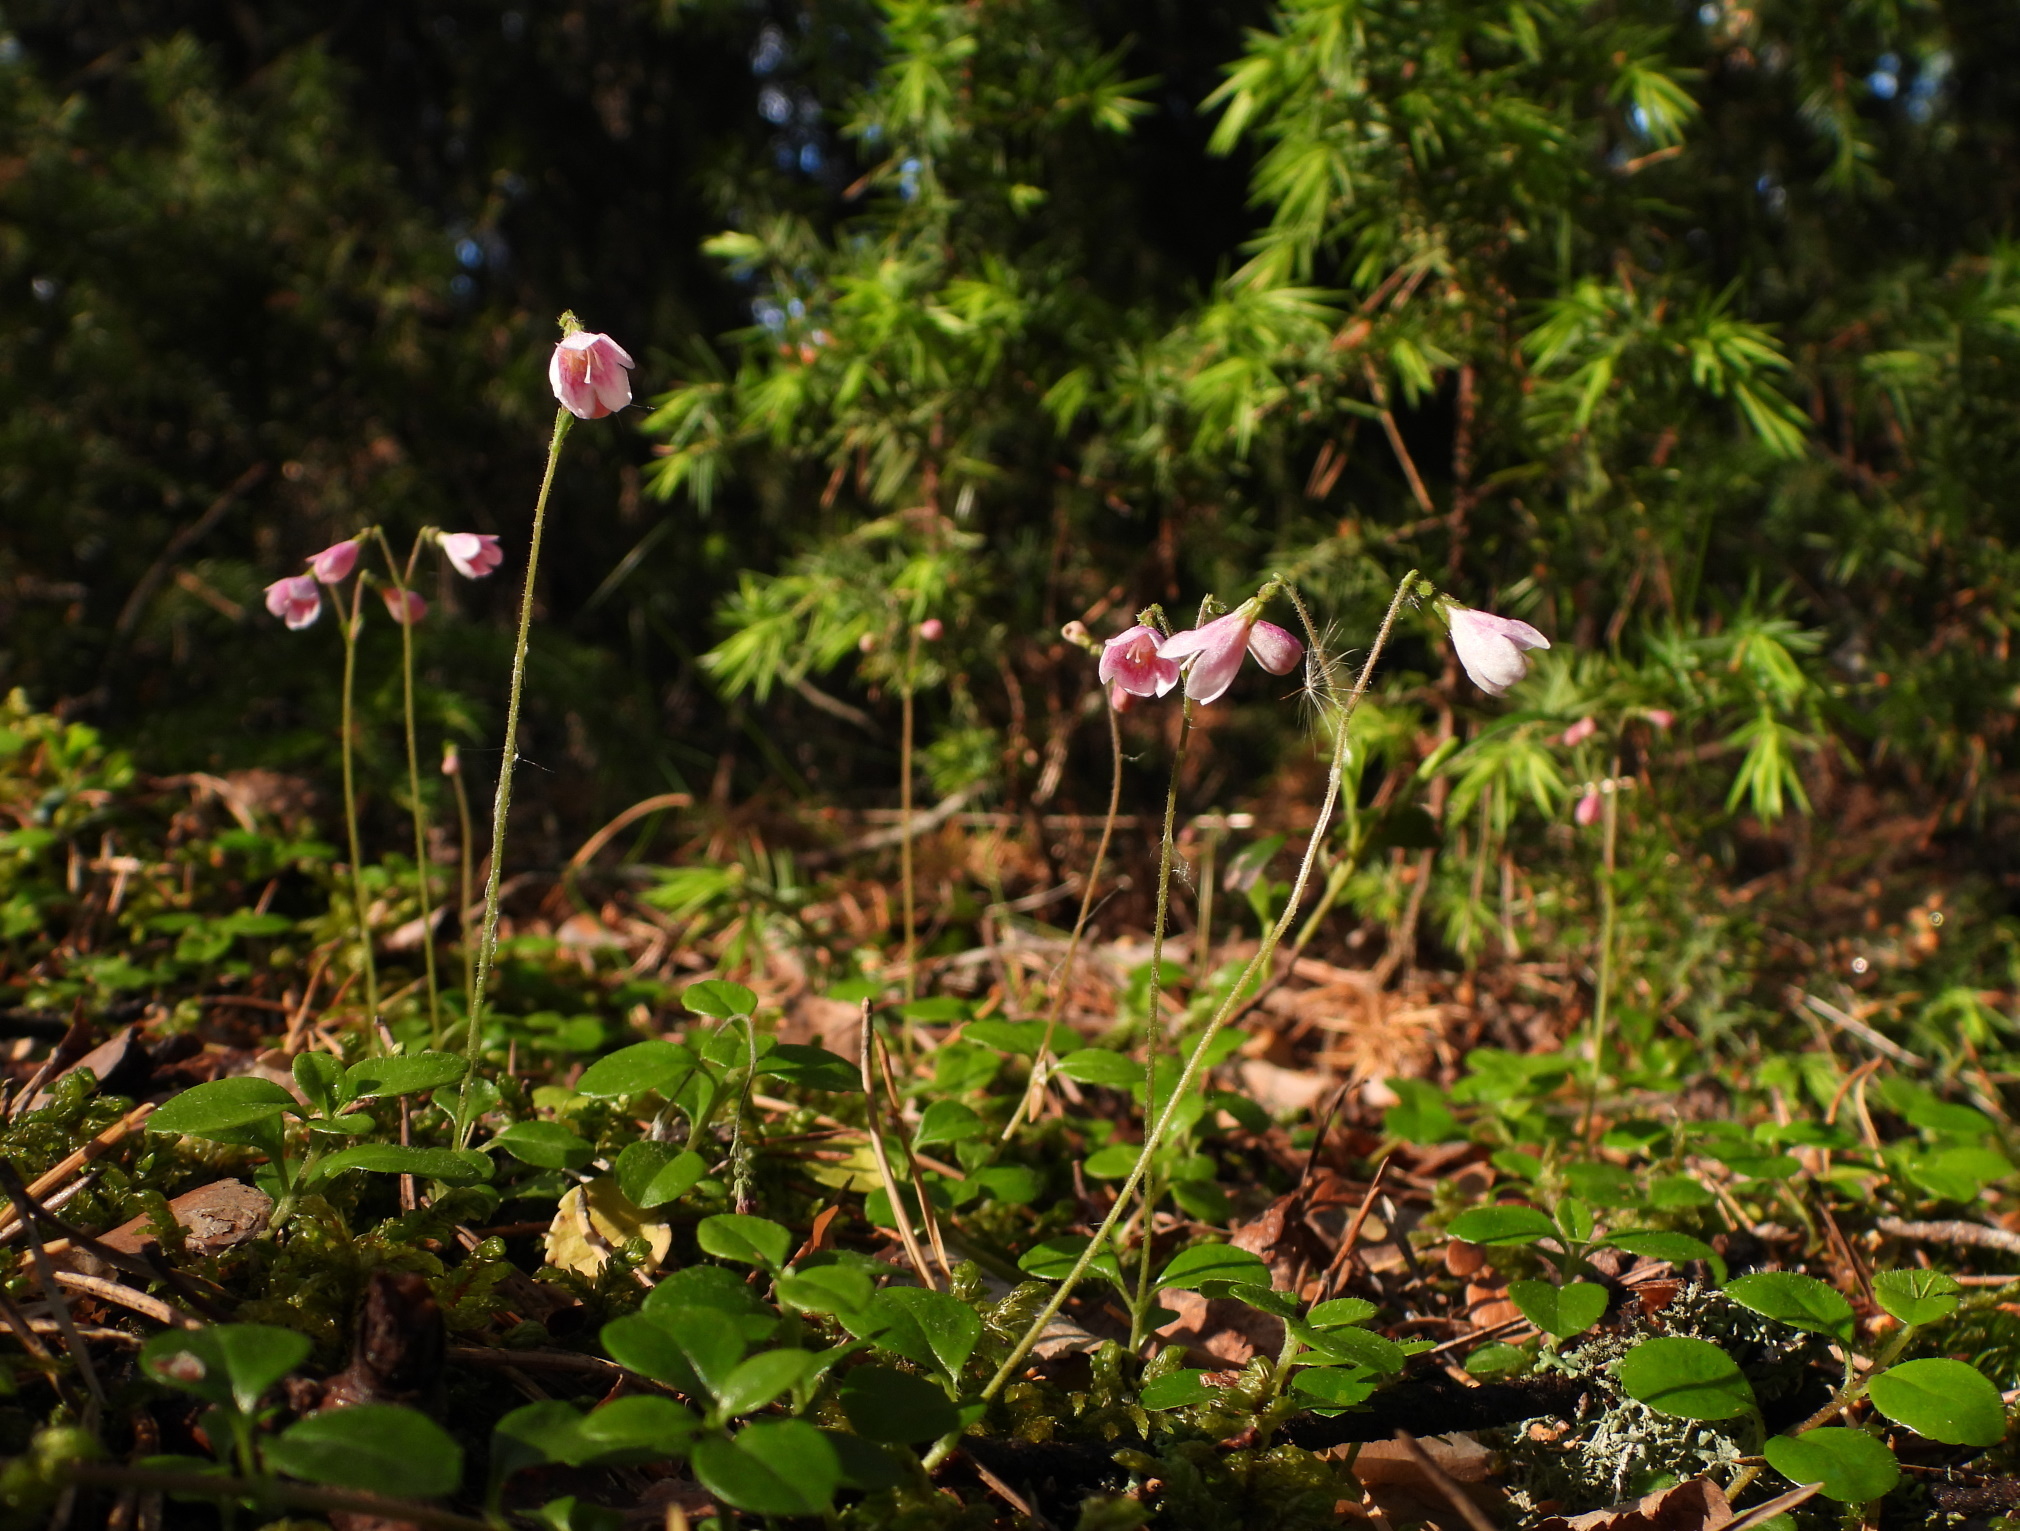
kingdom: Plantae
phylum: Tracheophyta
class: Magnoliopsida
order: Dipsacales
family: Caprifoliaceae
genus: Linnaea
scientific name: Linnaea borealis
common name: Twinflower
